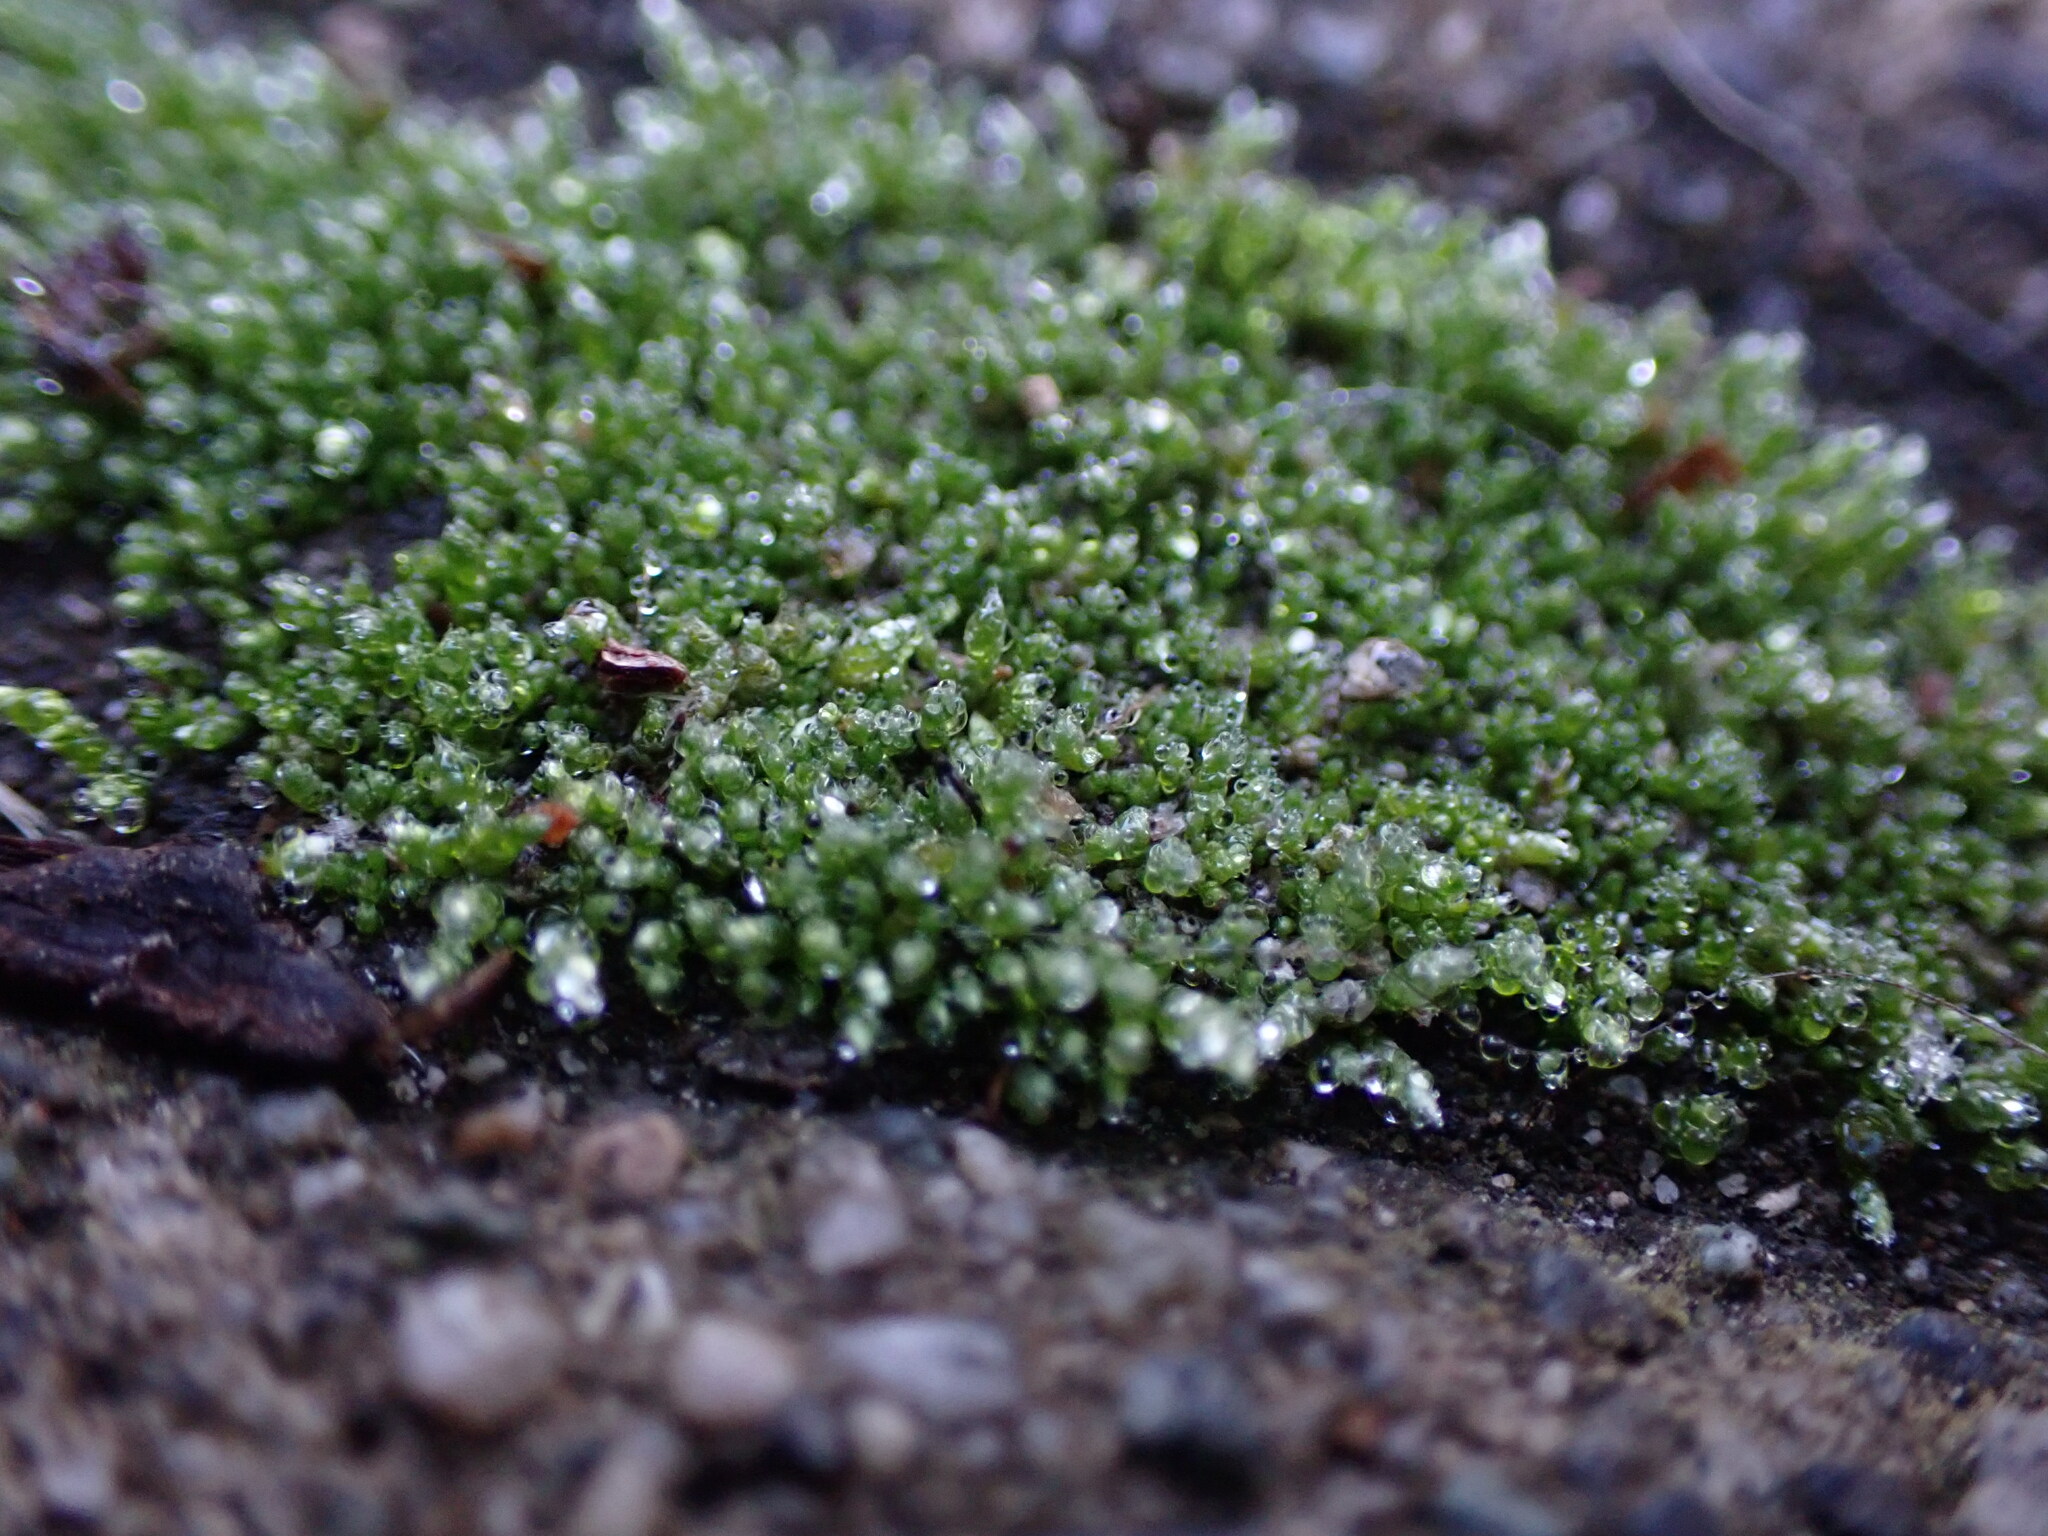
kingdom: Plantae
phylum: Bryophyta
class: Bryopsida
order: Bryales
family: Bryaceae
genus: Bryum
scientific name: Bryum argenteum
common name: Silver-moss
